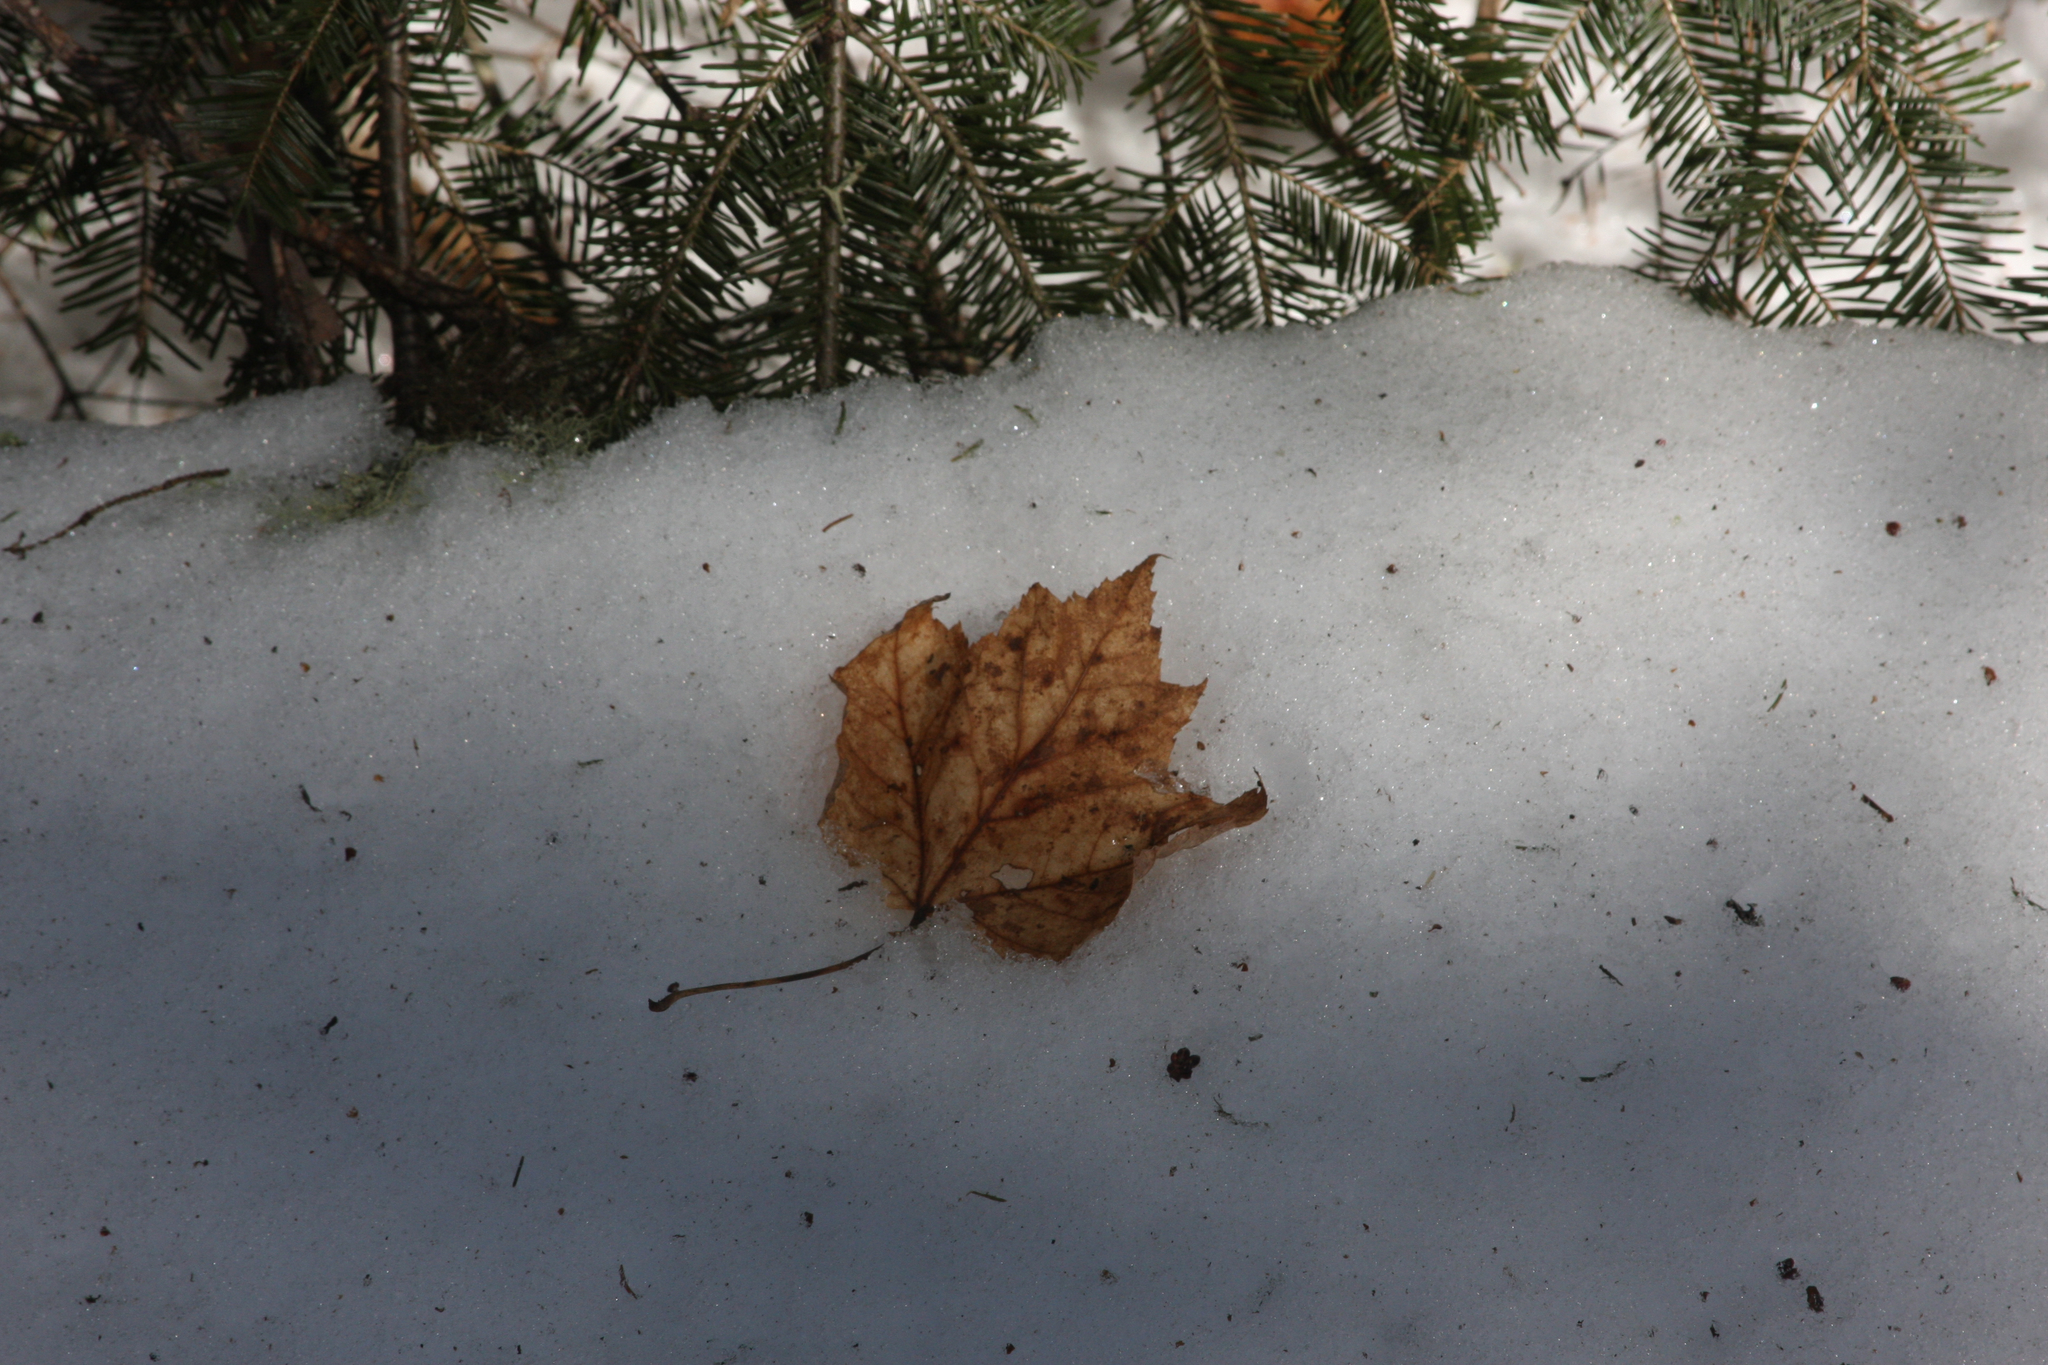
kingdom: Plantae
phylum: Tracheophyta
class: Magnoliopsida
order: Sapindales
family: Sapindaceae
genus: Acer
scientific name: Acer rubrum
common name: Red maple
